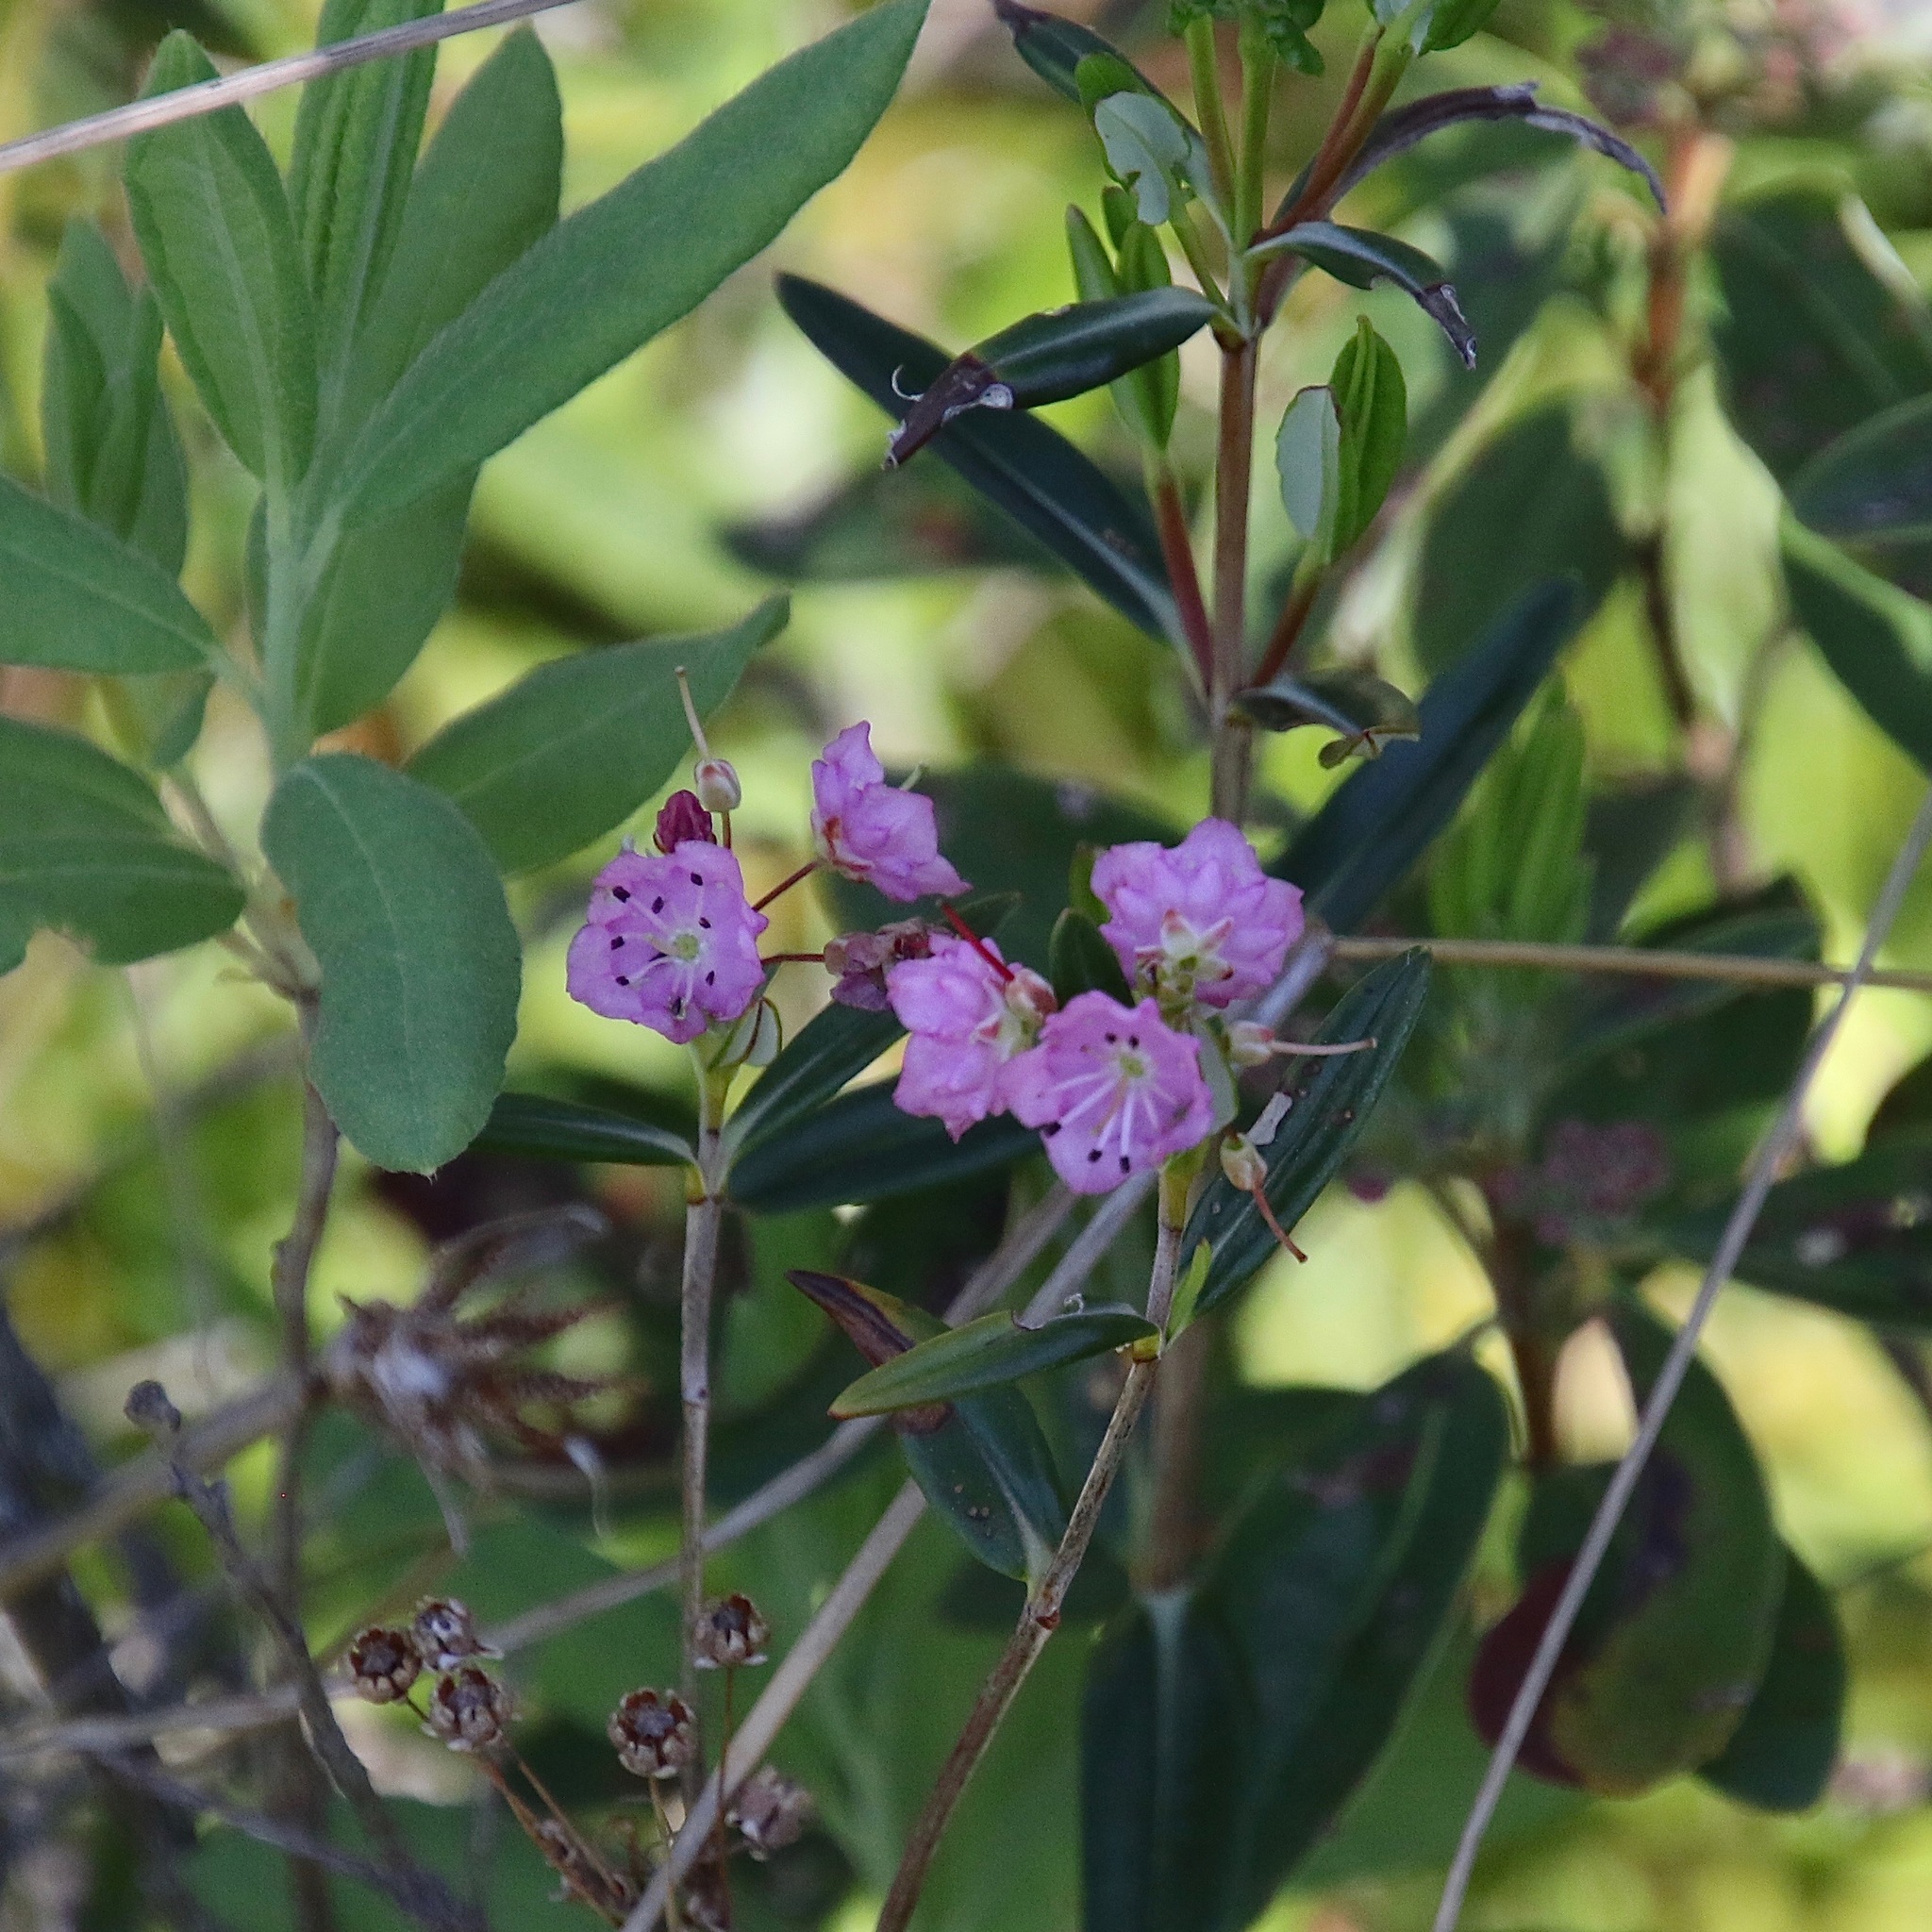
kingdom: Plantae
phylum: Tracheophyta
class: Magnoliopsida
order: Ericales
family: Ericaceae
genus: Kalmia
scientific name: Kalmia polifolia
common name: Bog-laurel
